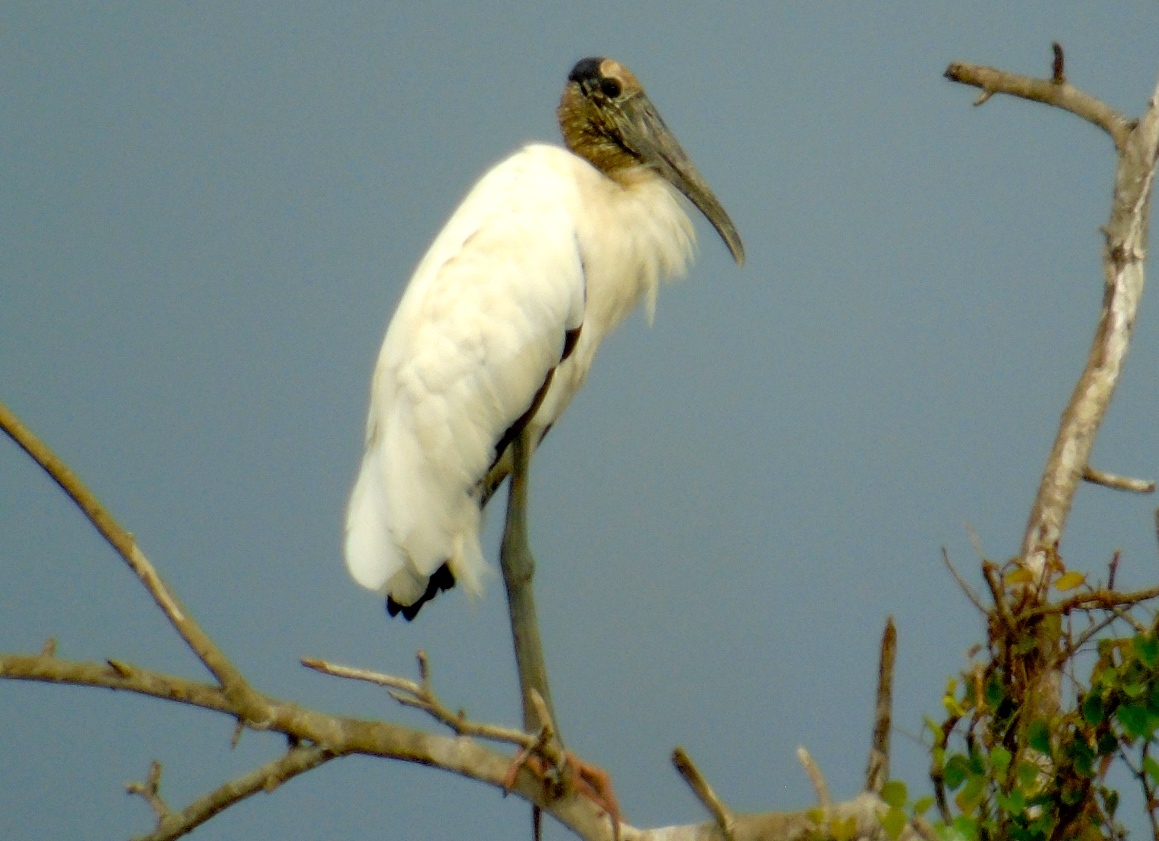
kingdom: Animalia
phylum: Chordata
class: Aves
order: Ciconiiformes
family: Ciconiidae
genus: Mycteria
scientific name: Mycteria americana
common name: Wood stork
